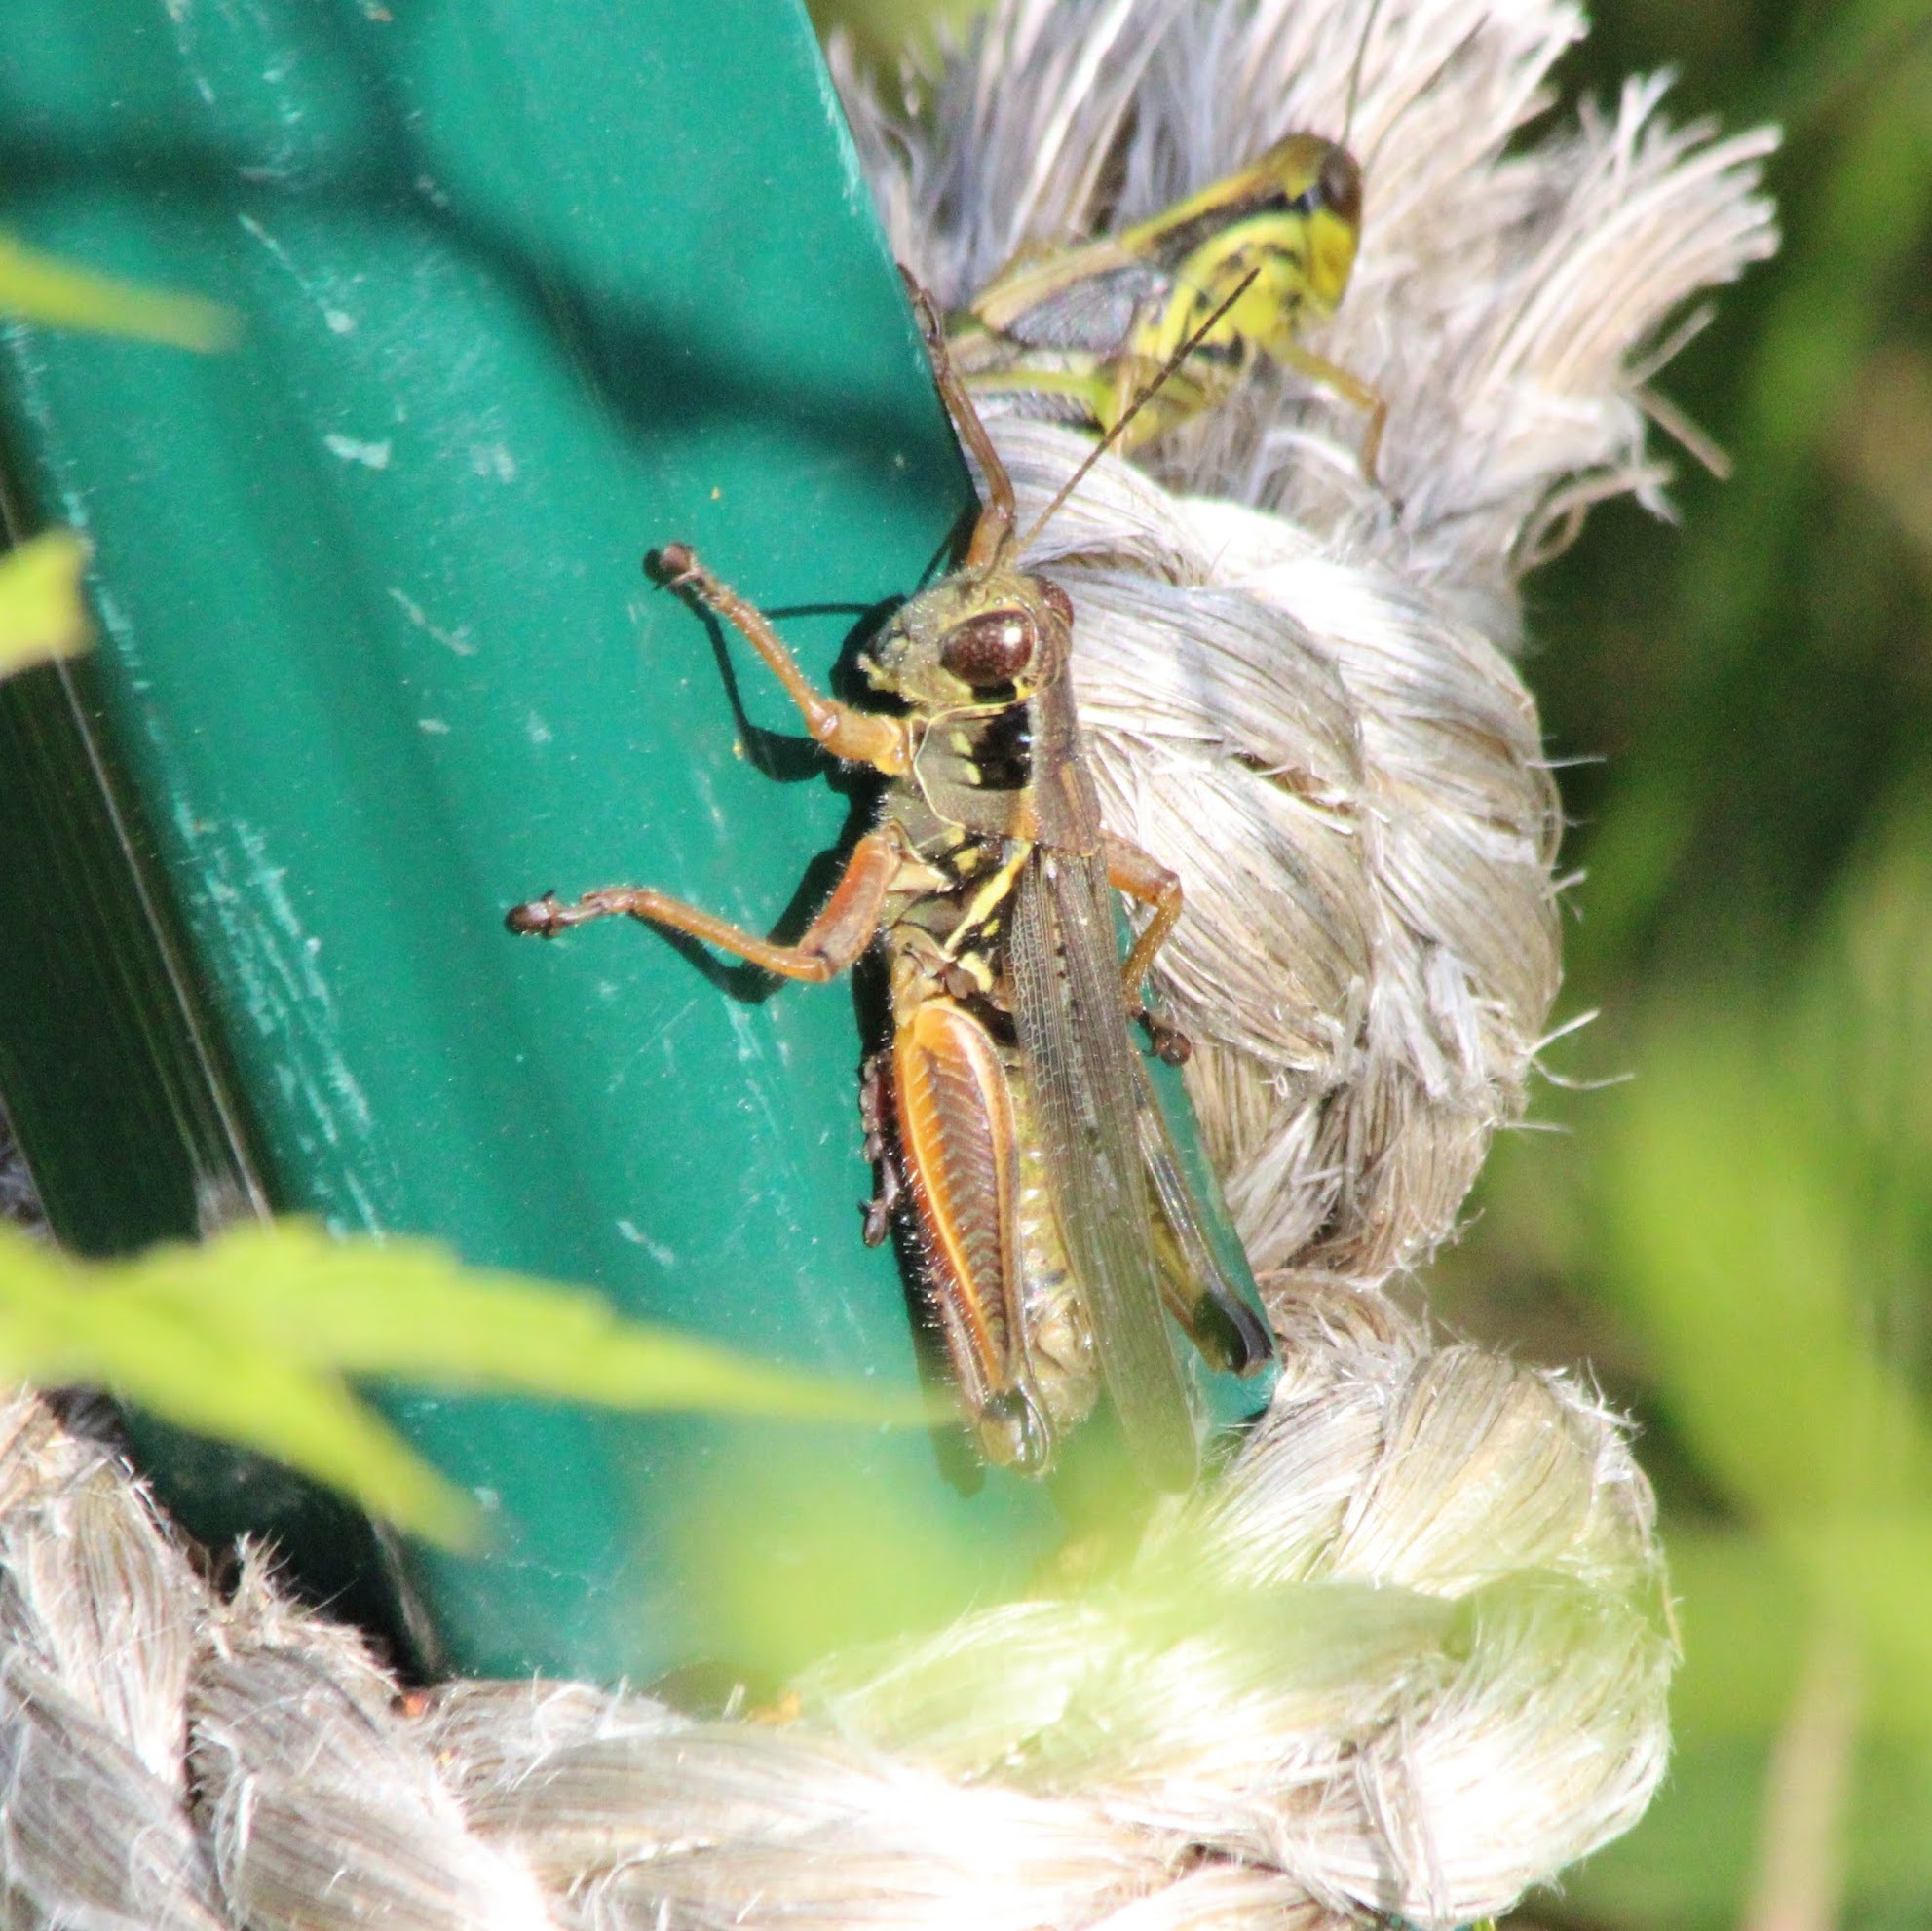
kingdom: Animalia
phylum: Arthropoda
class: Insecta
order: Orthoptera
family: Acrididae
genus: Melanoplus
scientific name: Melanoplus femurrubrum
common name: Red-legged grasshopper
